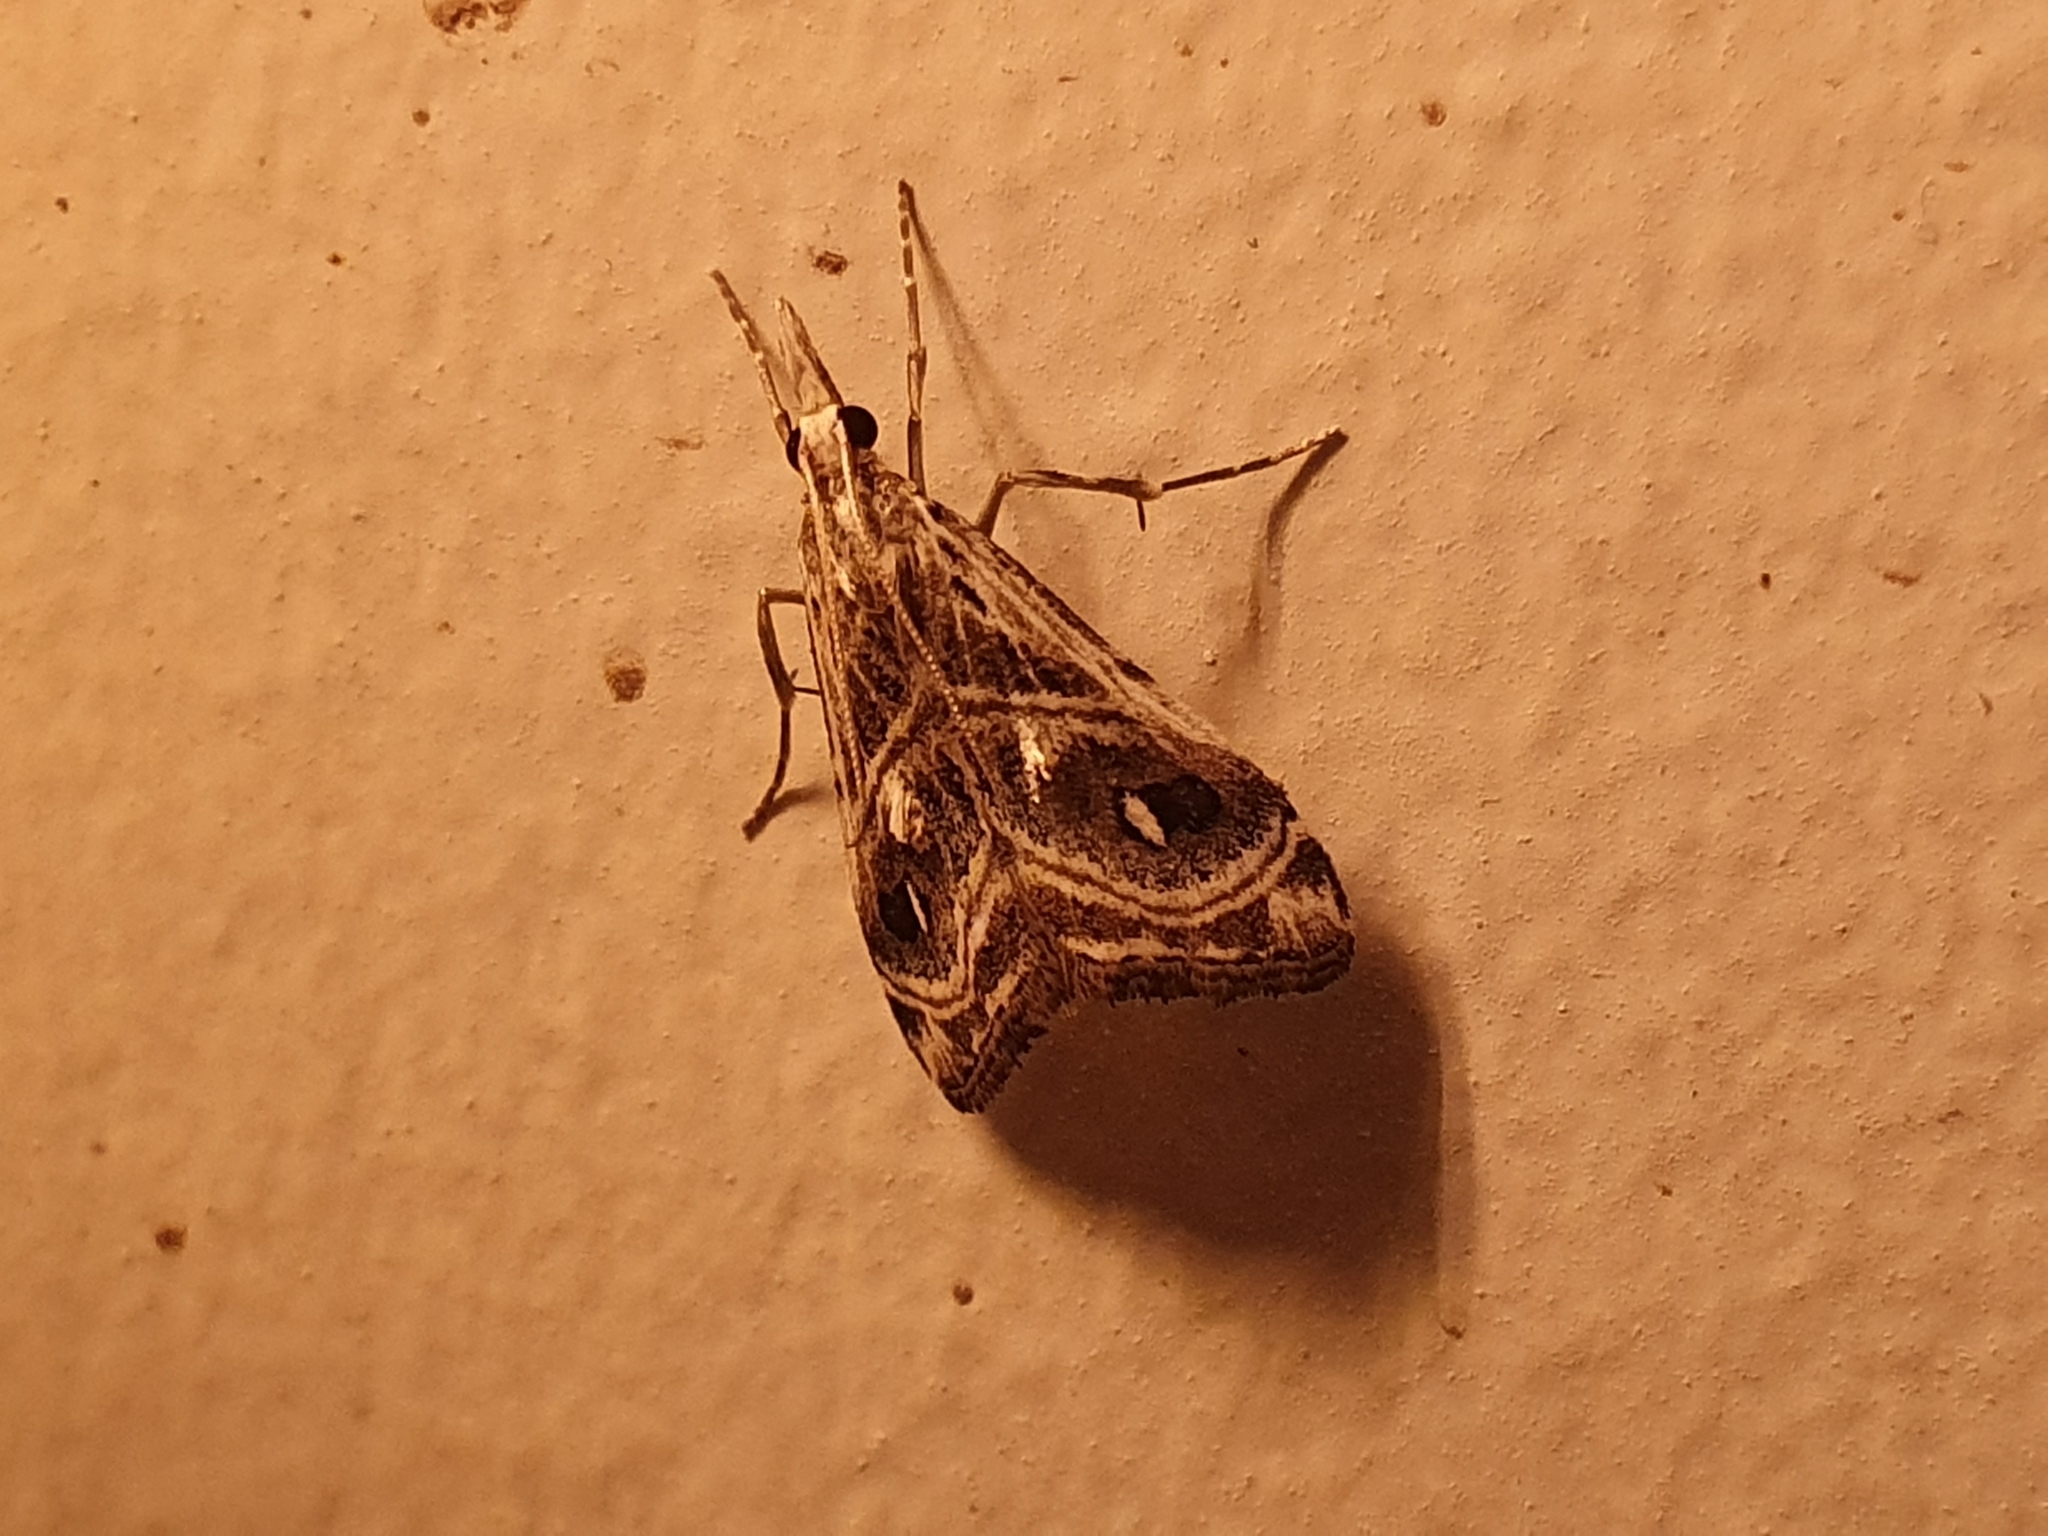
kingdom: Animalia
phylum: Arthropoda
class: Insecta
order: Lepidoptera
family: Crambidae
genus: Gadira
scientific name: Gadira acerella
